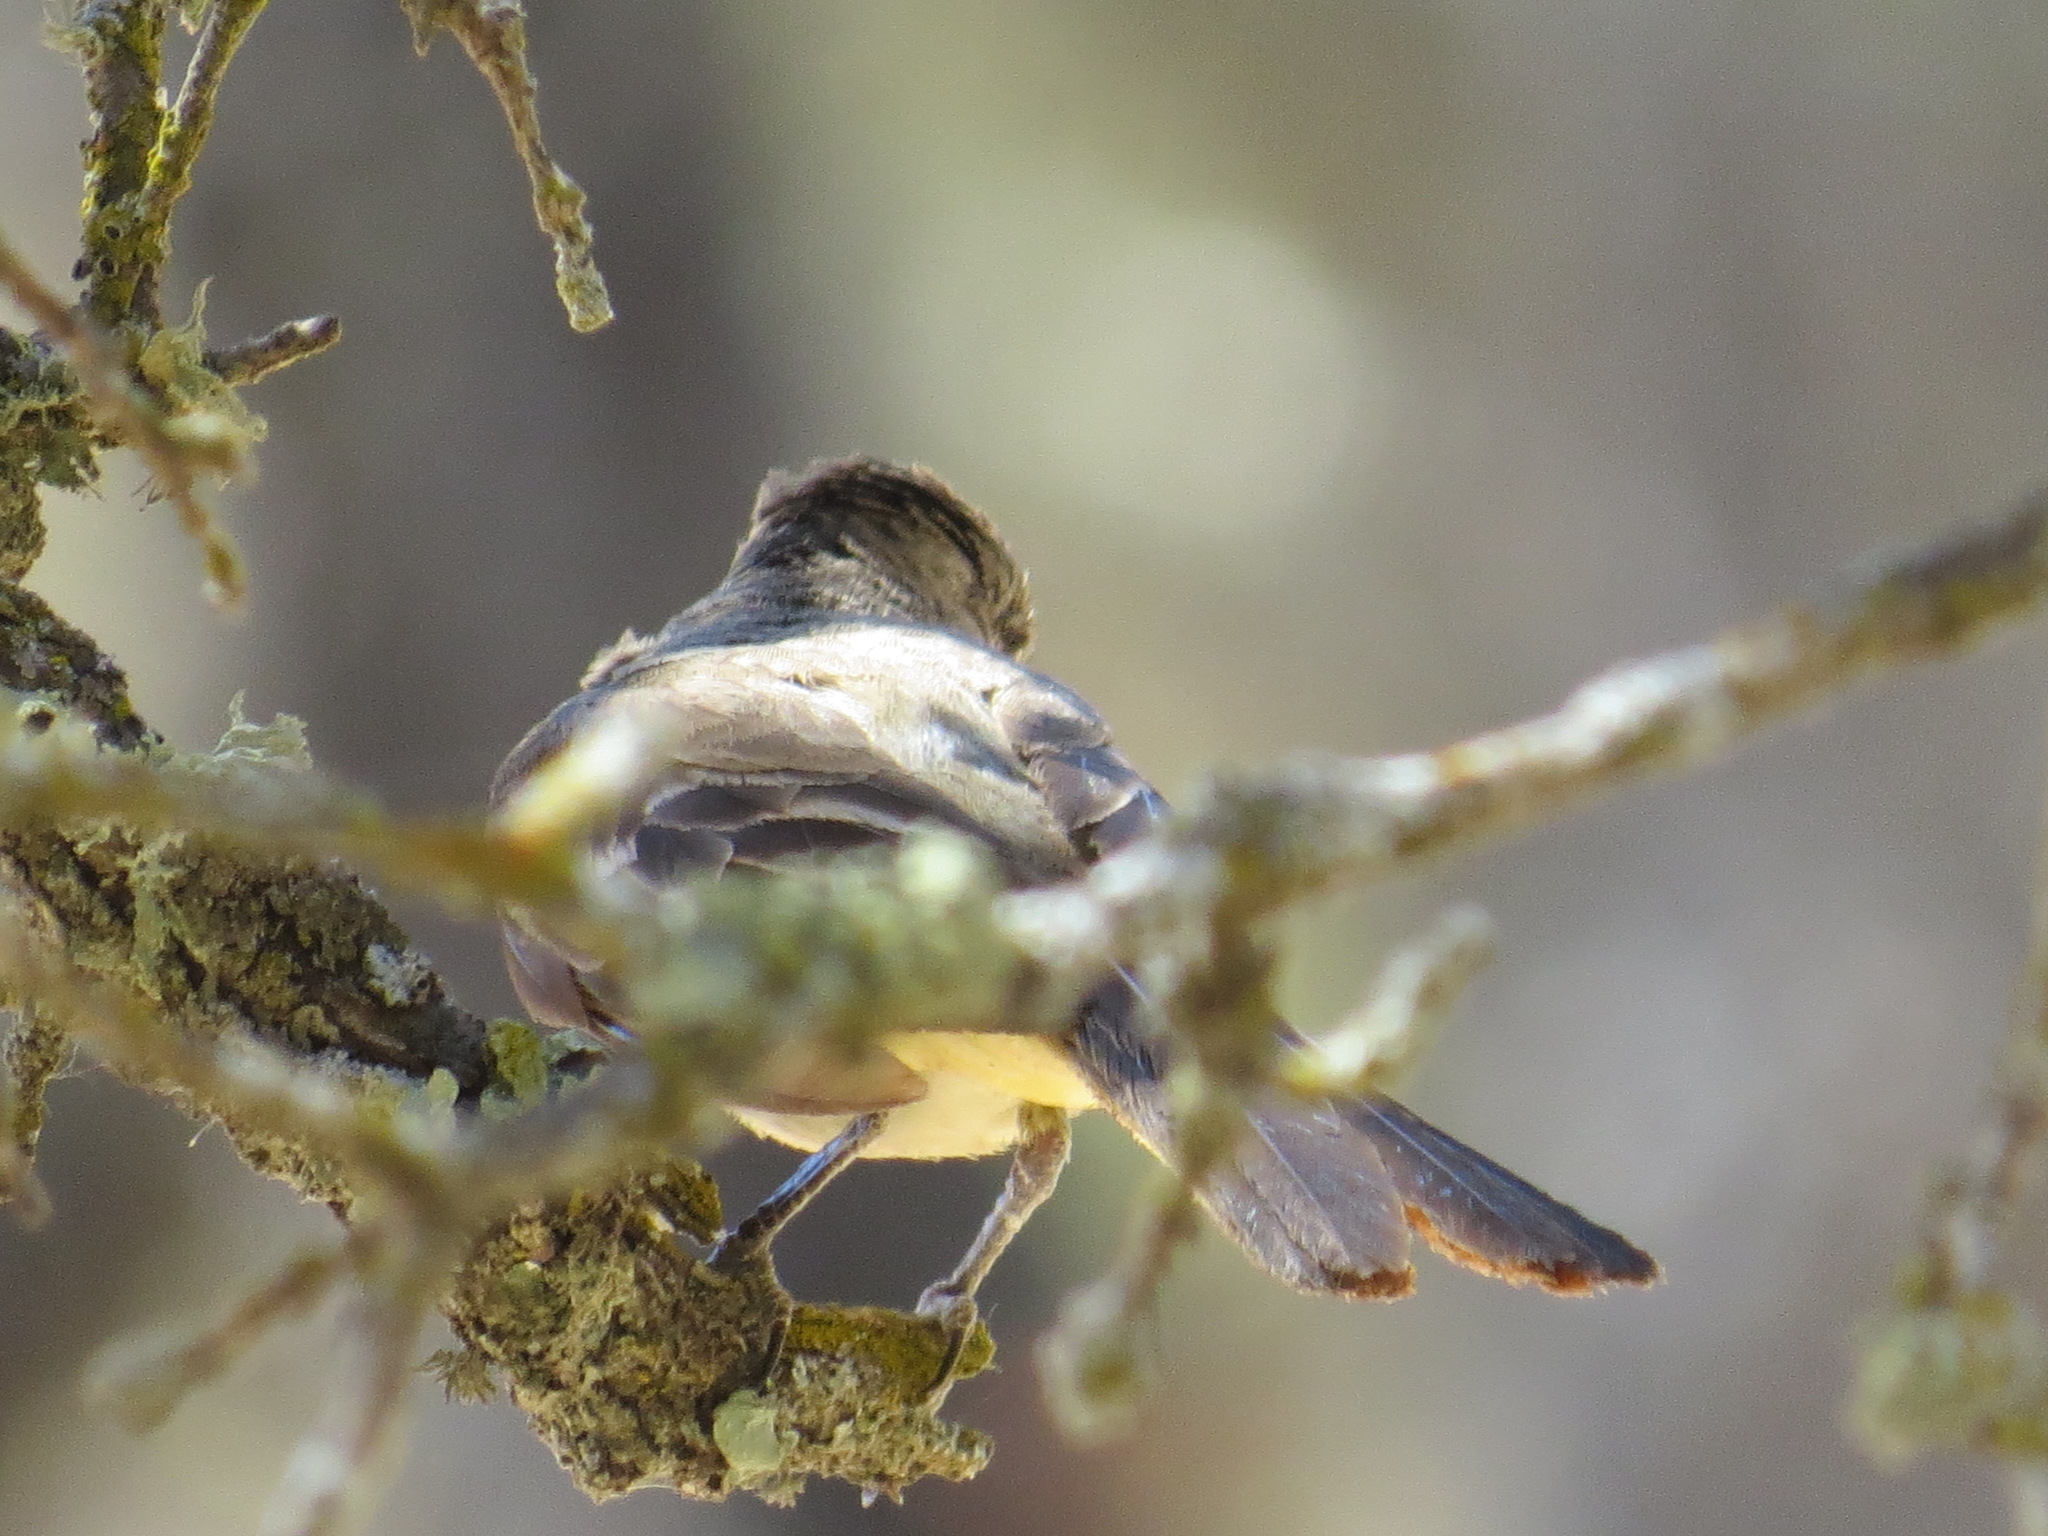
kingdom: Animalia
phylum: Chordata
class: Aves
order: Passeriformes
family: Tyrannidae
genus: Myiarchus
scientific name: Myiarchus cinerascens
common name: Ash-throated flycatcher
